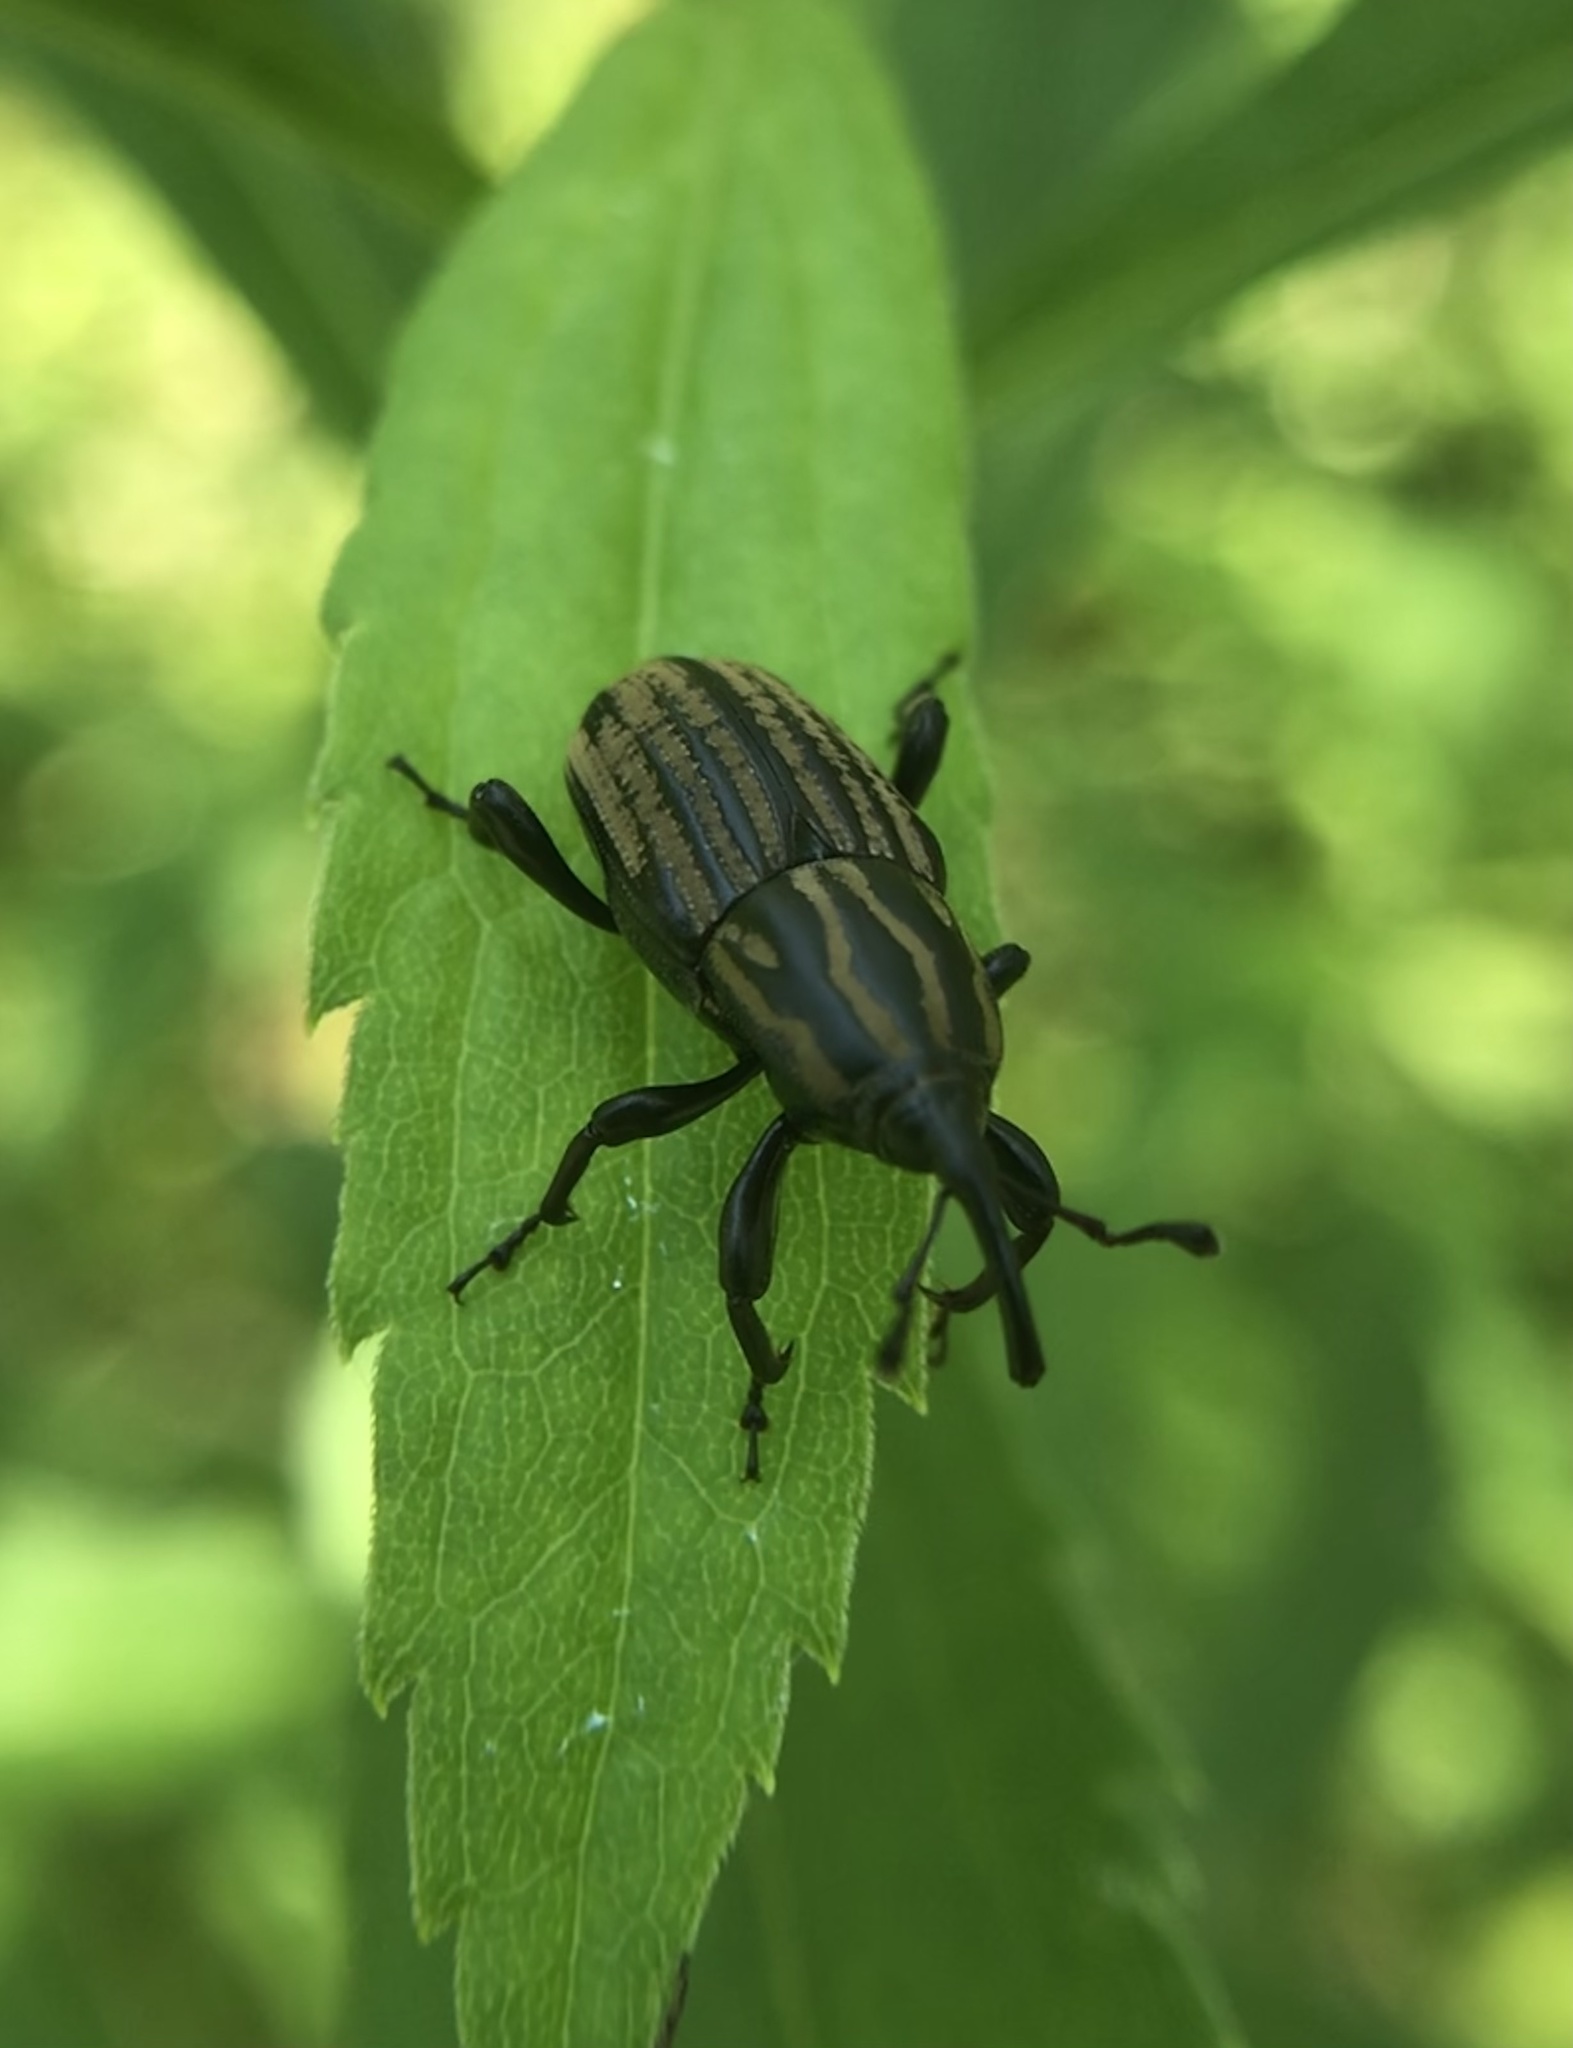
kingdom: Animalia
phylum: Arthropoda
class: Insecta
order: Coleoptera
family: Dryophthoridae
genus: Sphenophorus
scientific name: Sphenophorus australis
